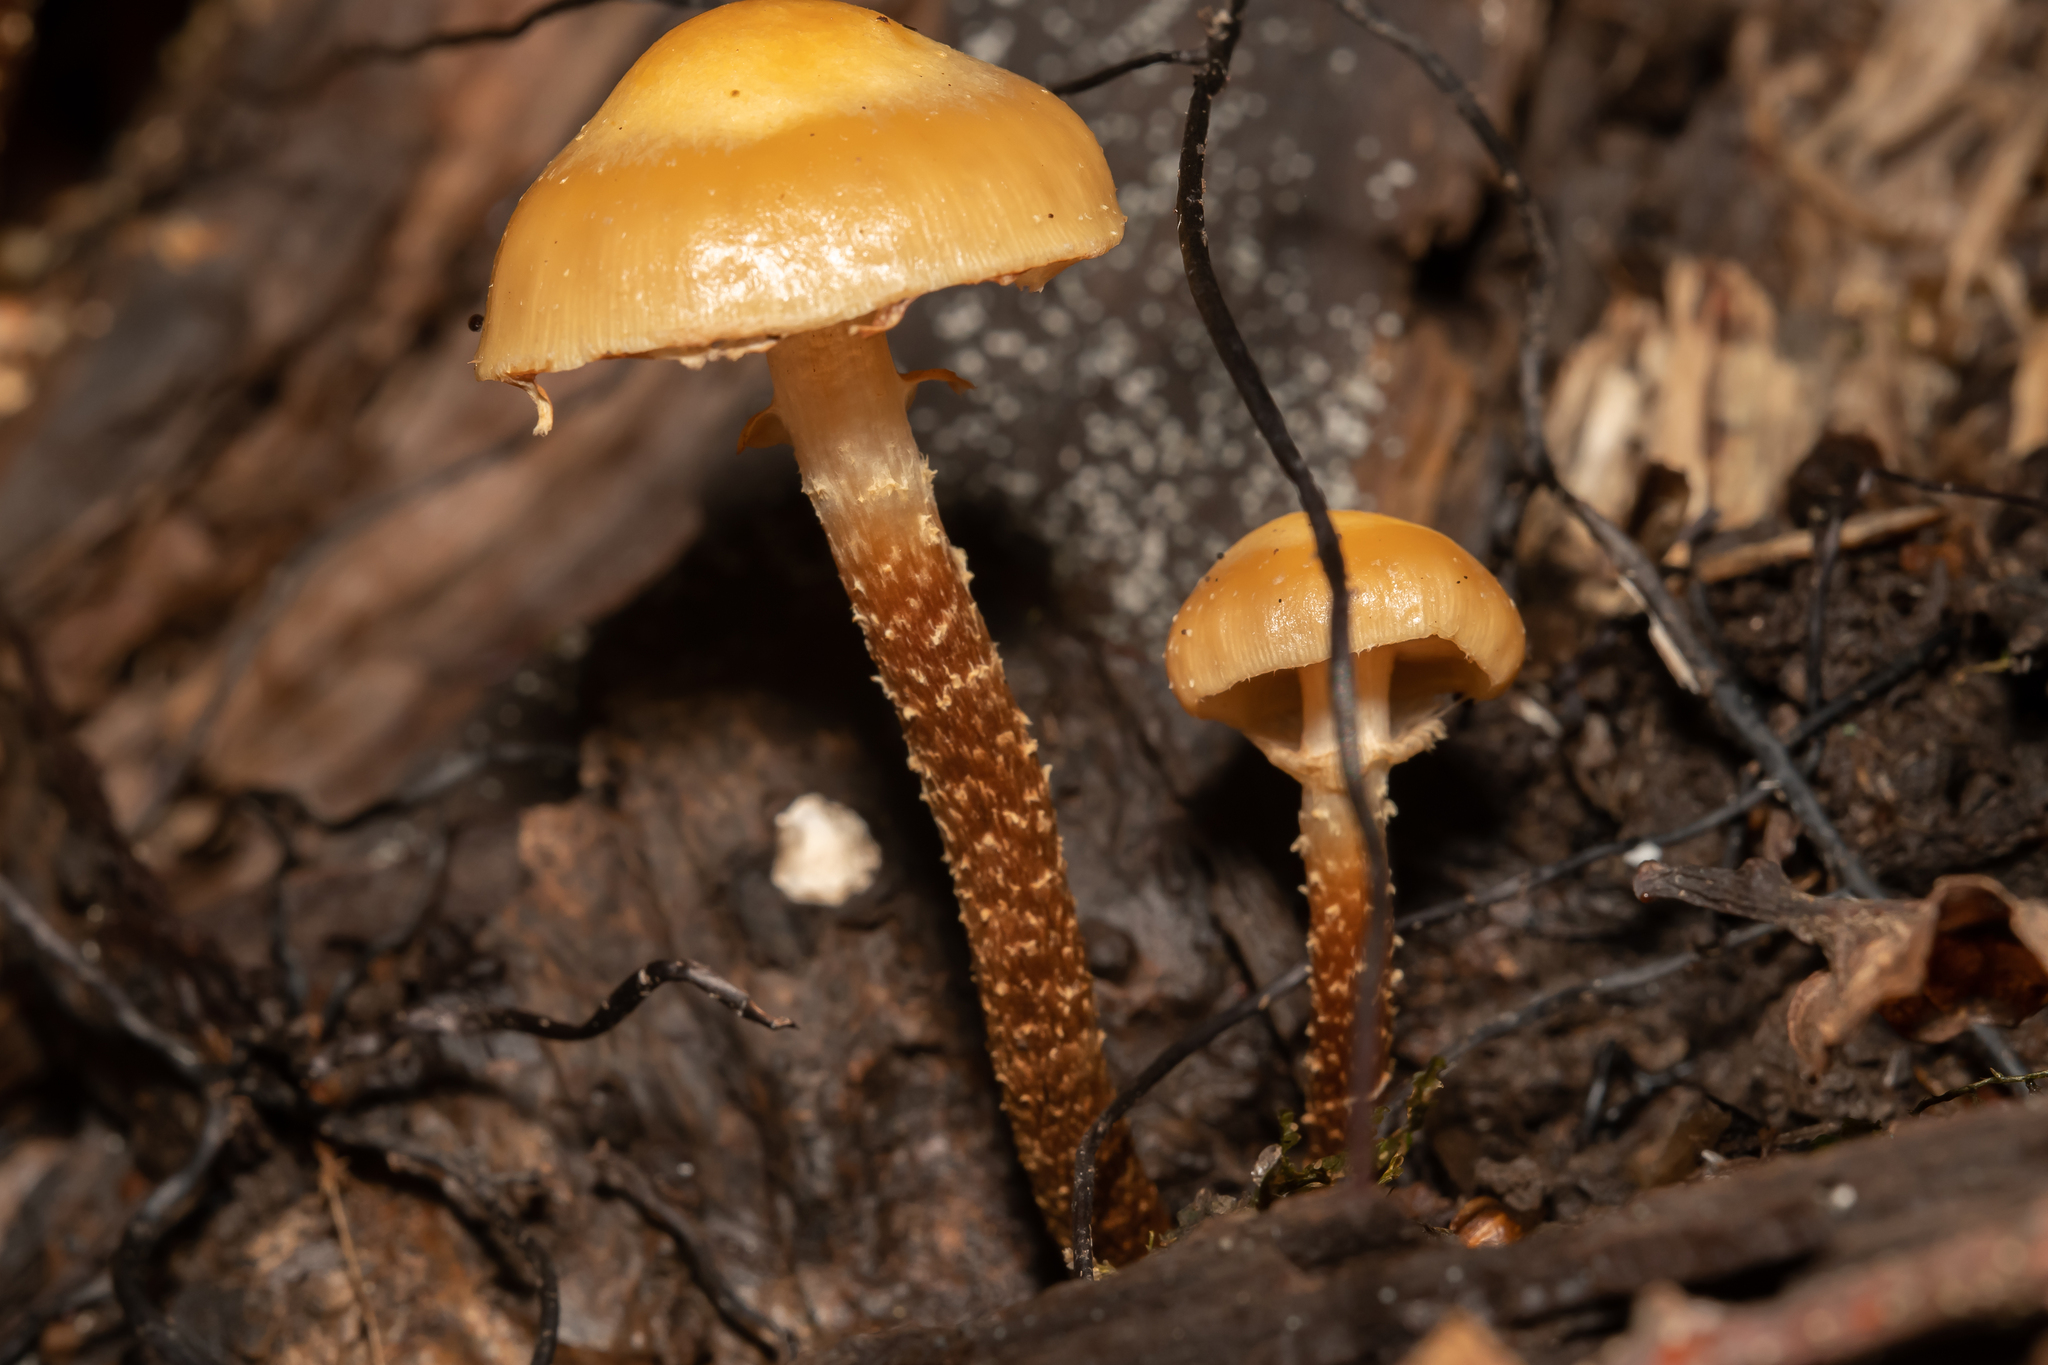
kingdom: Fungi
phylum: Basidiomycota
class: Agaricomycetes
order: Agaricales
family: Strophariaceae
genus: Kuehneromyces
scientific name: Kuehneromyces mutabilis
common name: Sheathed woodtuft
